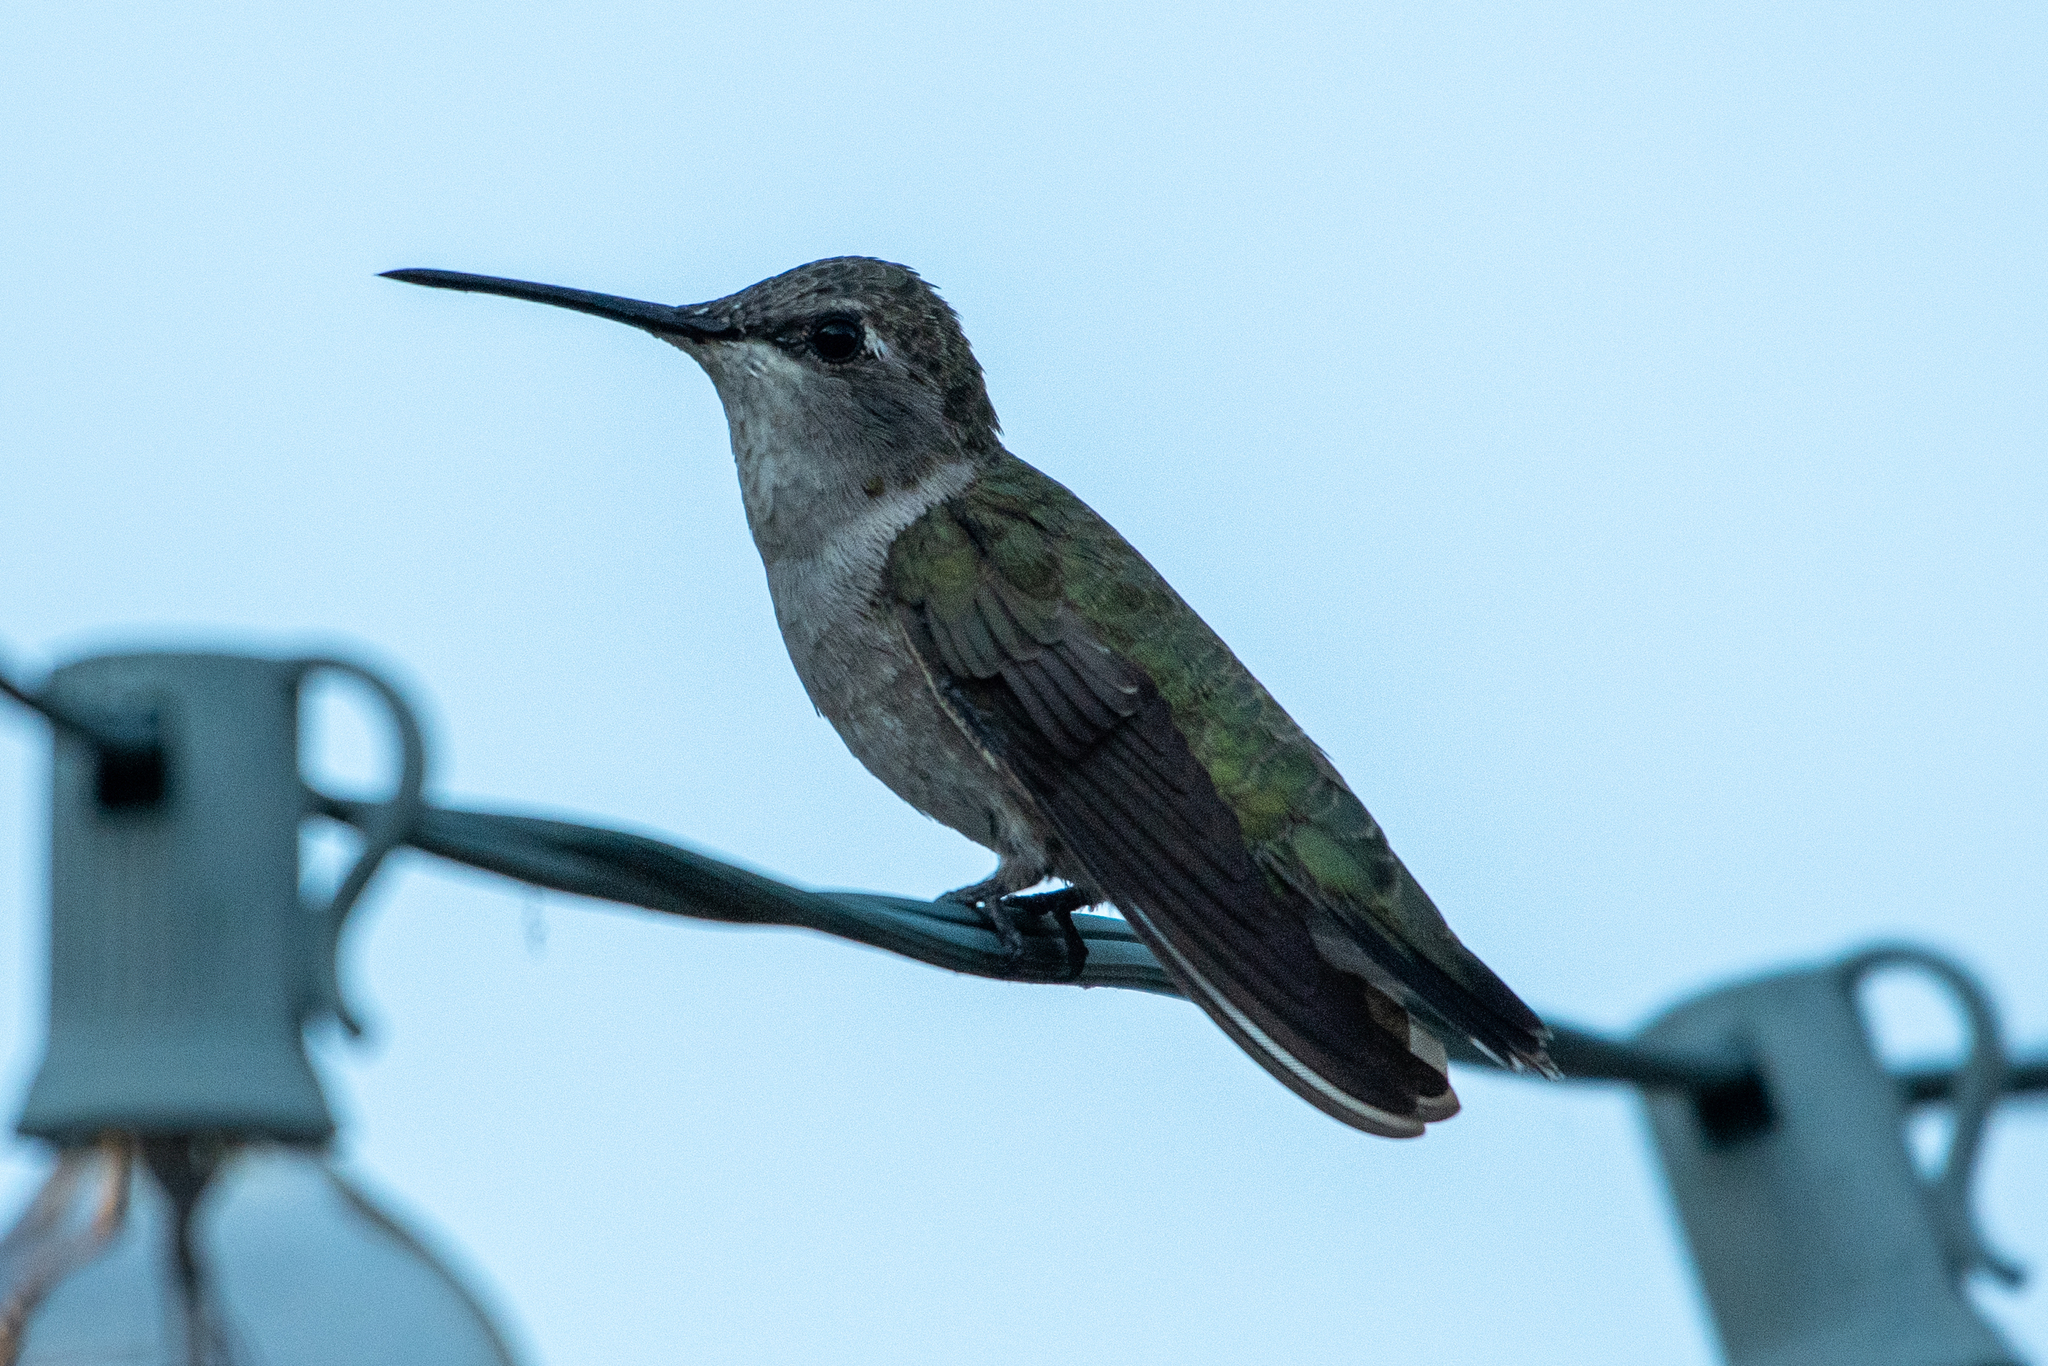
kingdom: Animalia
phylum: Chordata
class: Aves
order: Apodiformes
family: Trochilidae
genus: Archilochus
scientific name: Archilochus alexandri
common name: Black-chinned hummingbird
